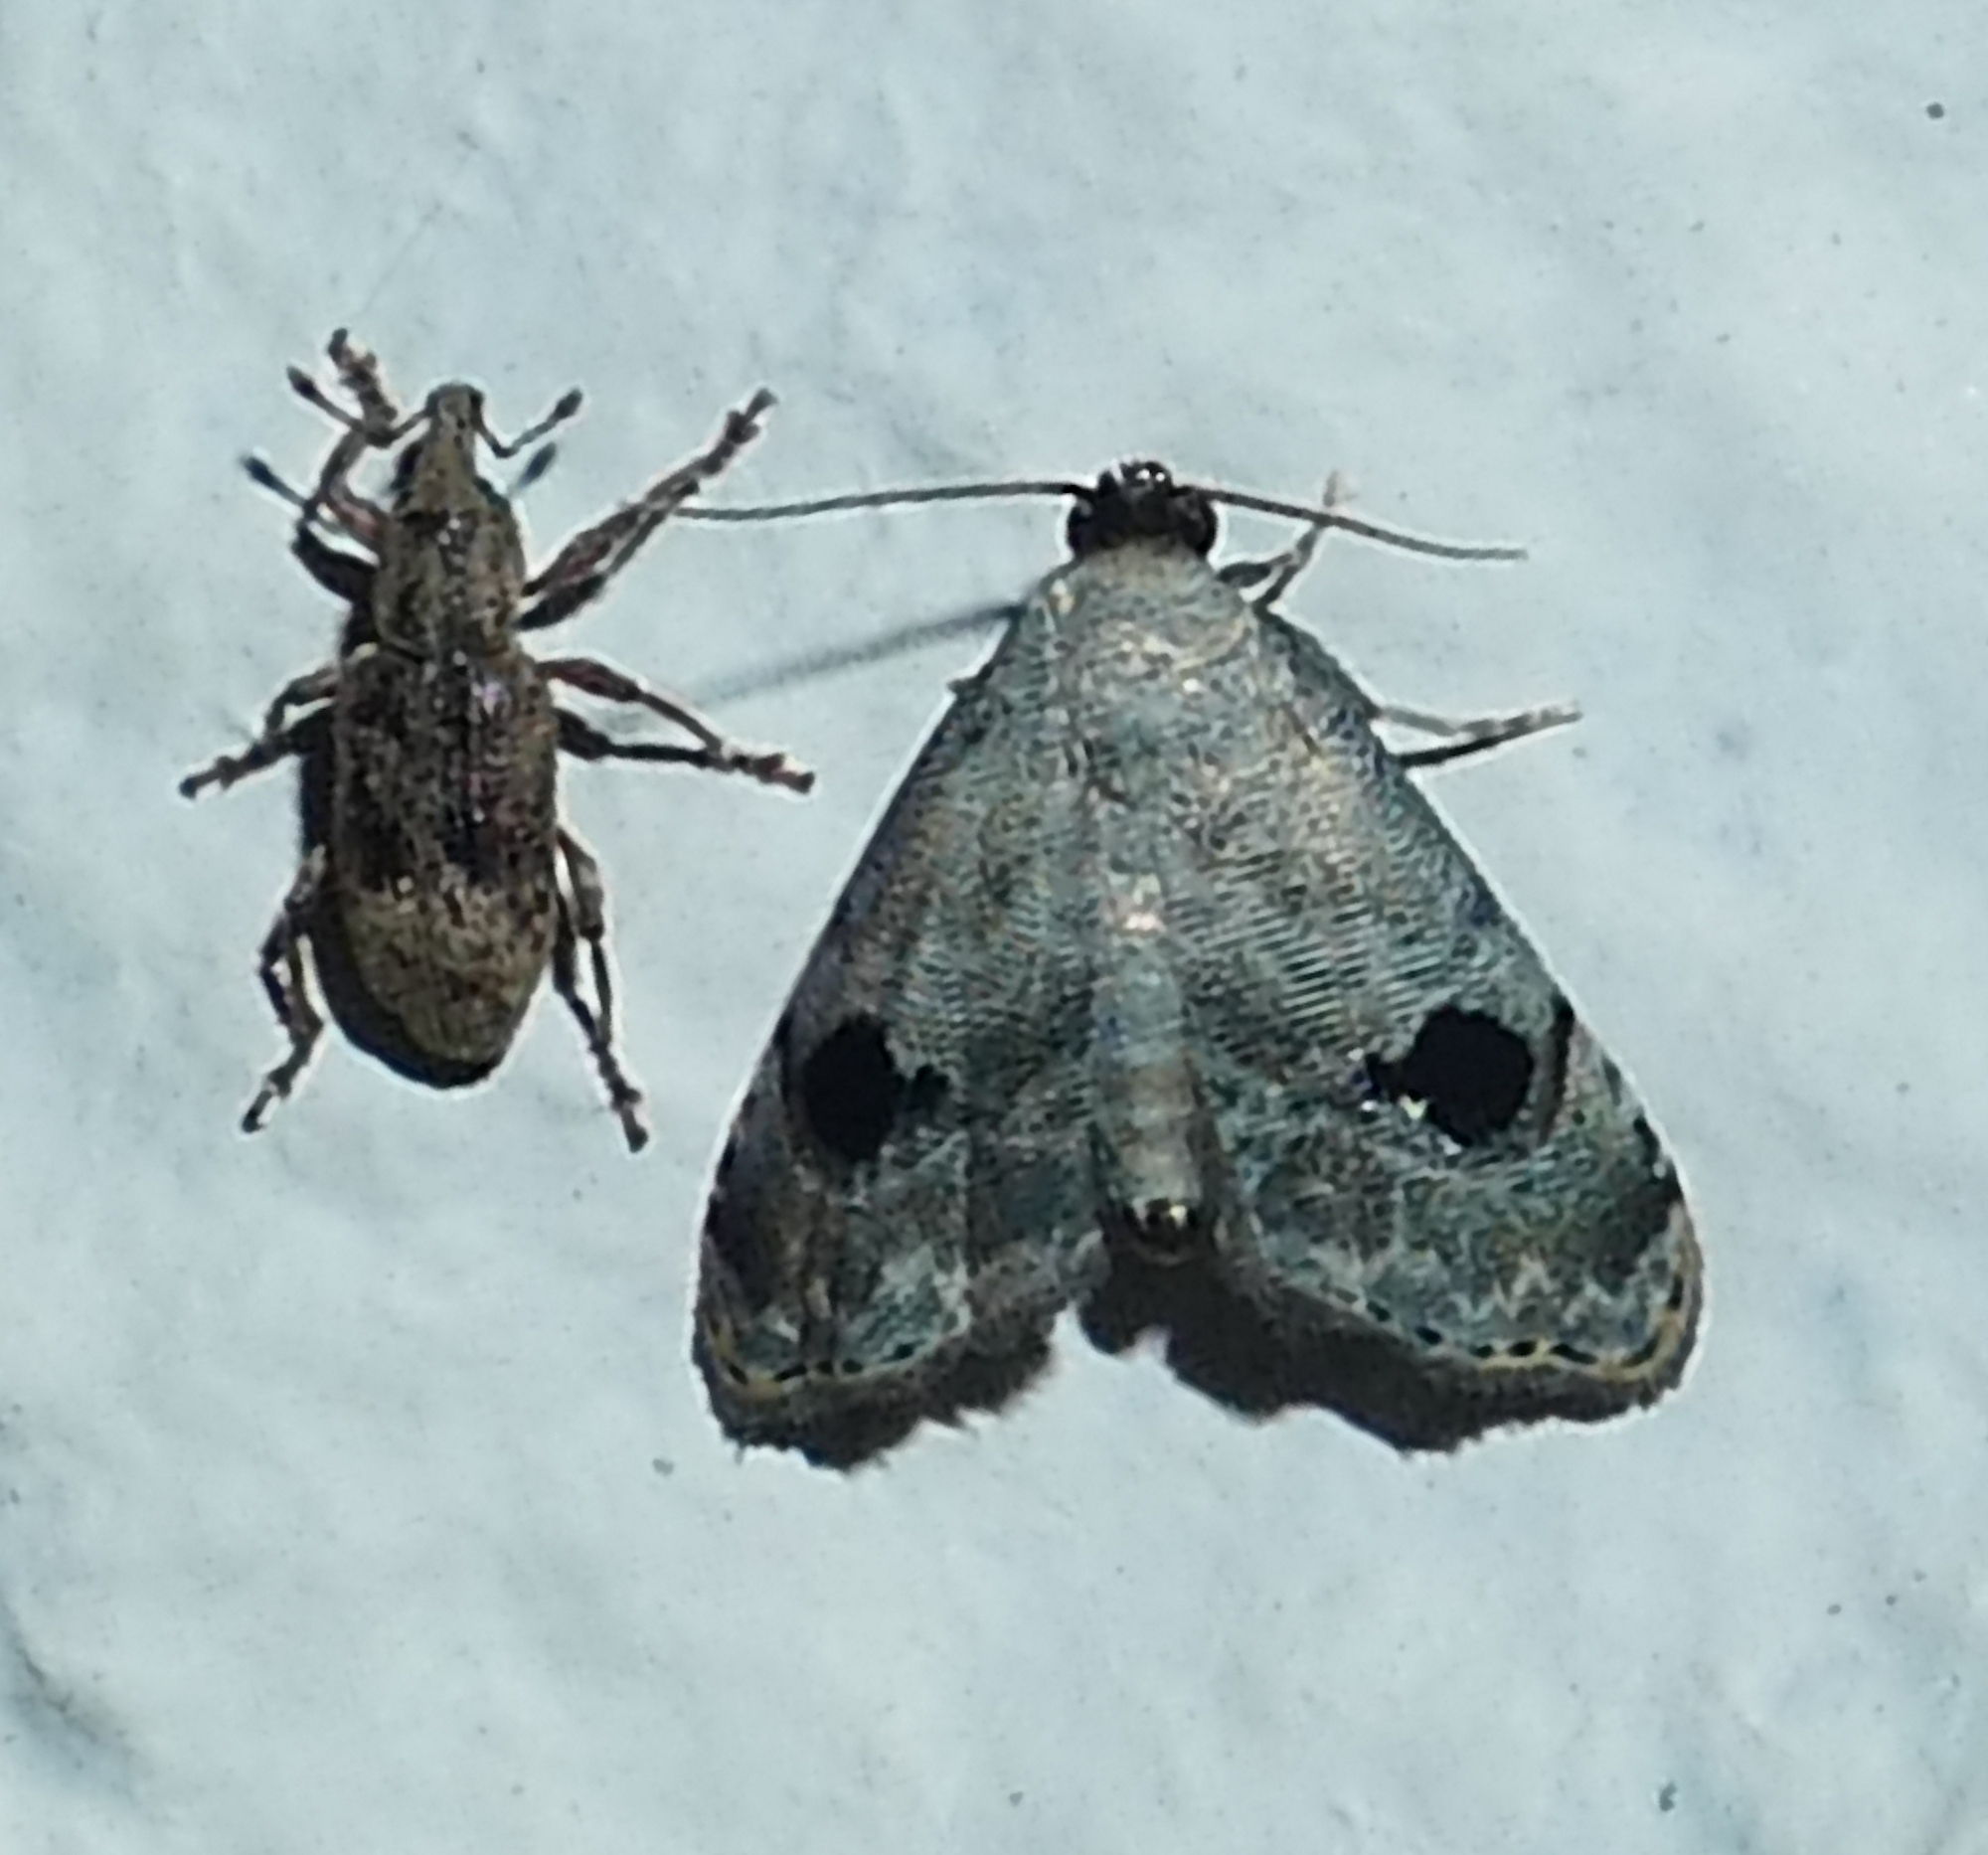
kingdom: Animalia
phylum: Arthropoda
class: Insecta
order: Lepidoptera
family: Noctuidae
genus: Abablemma
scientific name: Abablemma duomaculata
